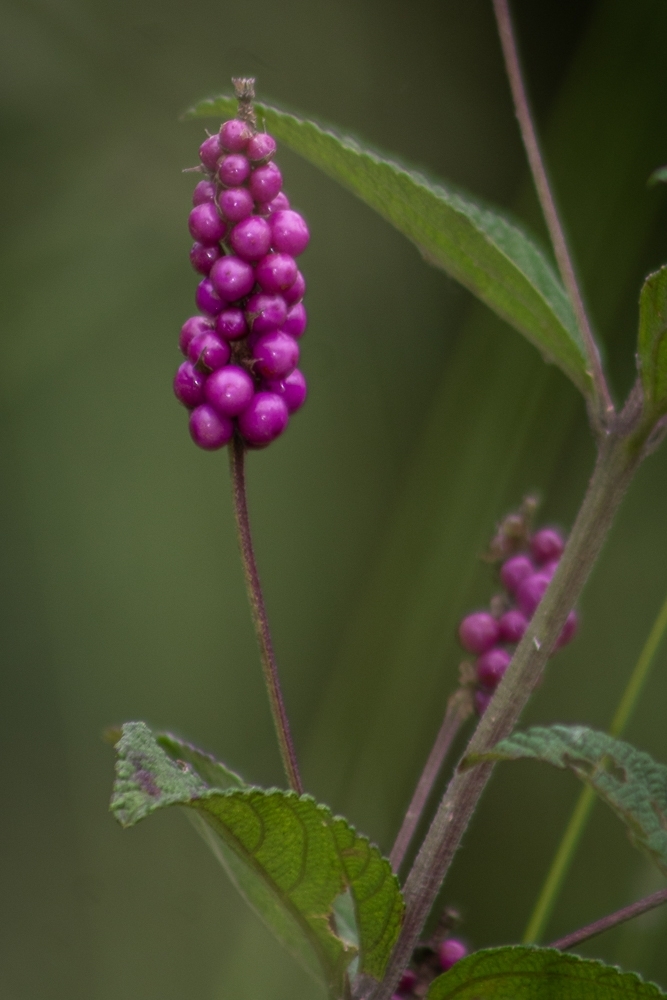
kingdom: Plantae
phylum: Tracheophyta
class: Magnoliopsida
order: Lamiales
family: Verbenaceae
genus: Lantana
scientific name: Lantana trifolia
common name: Sweet-sage
